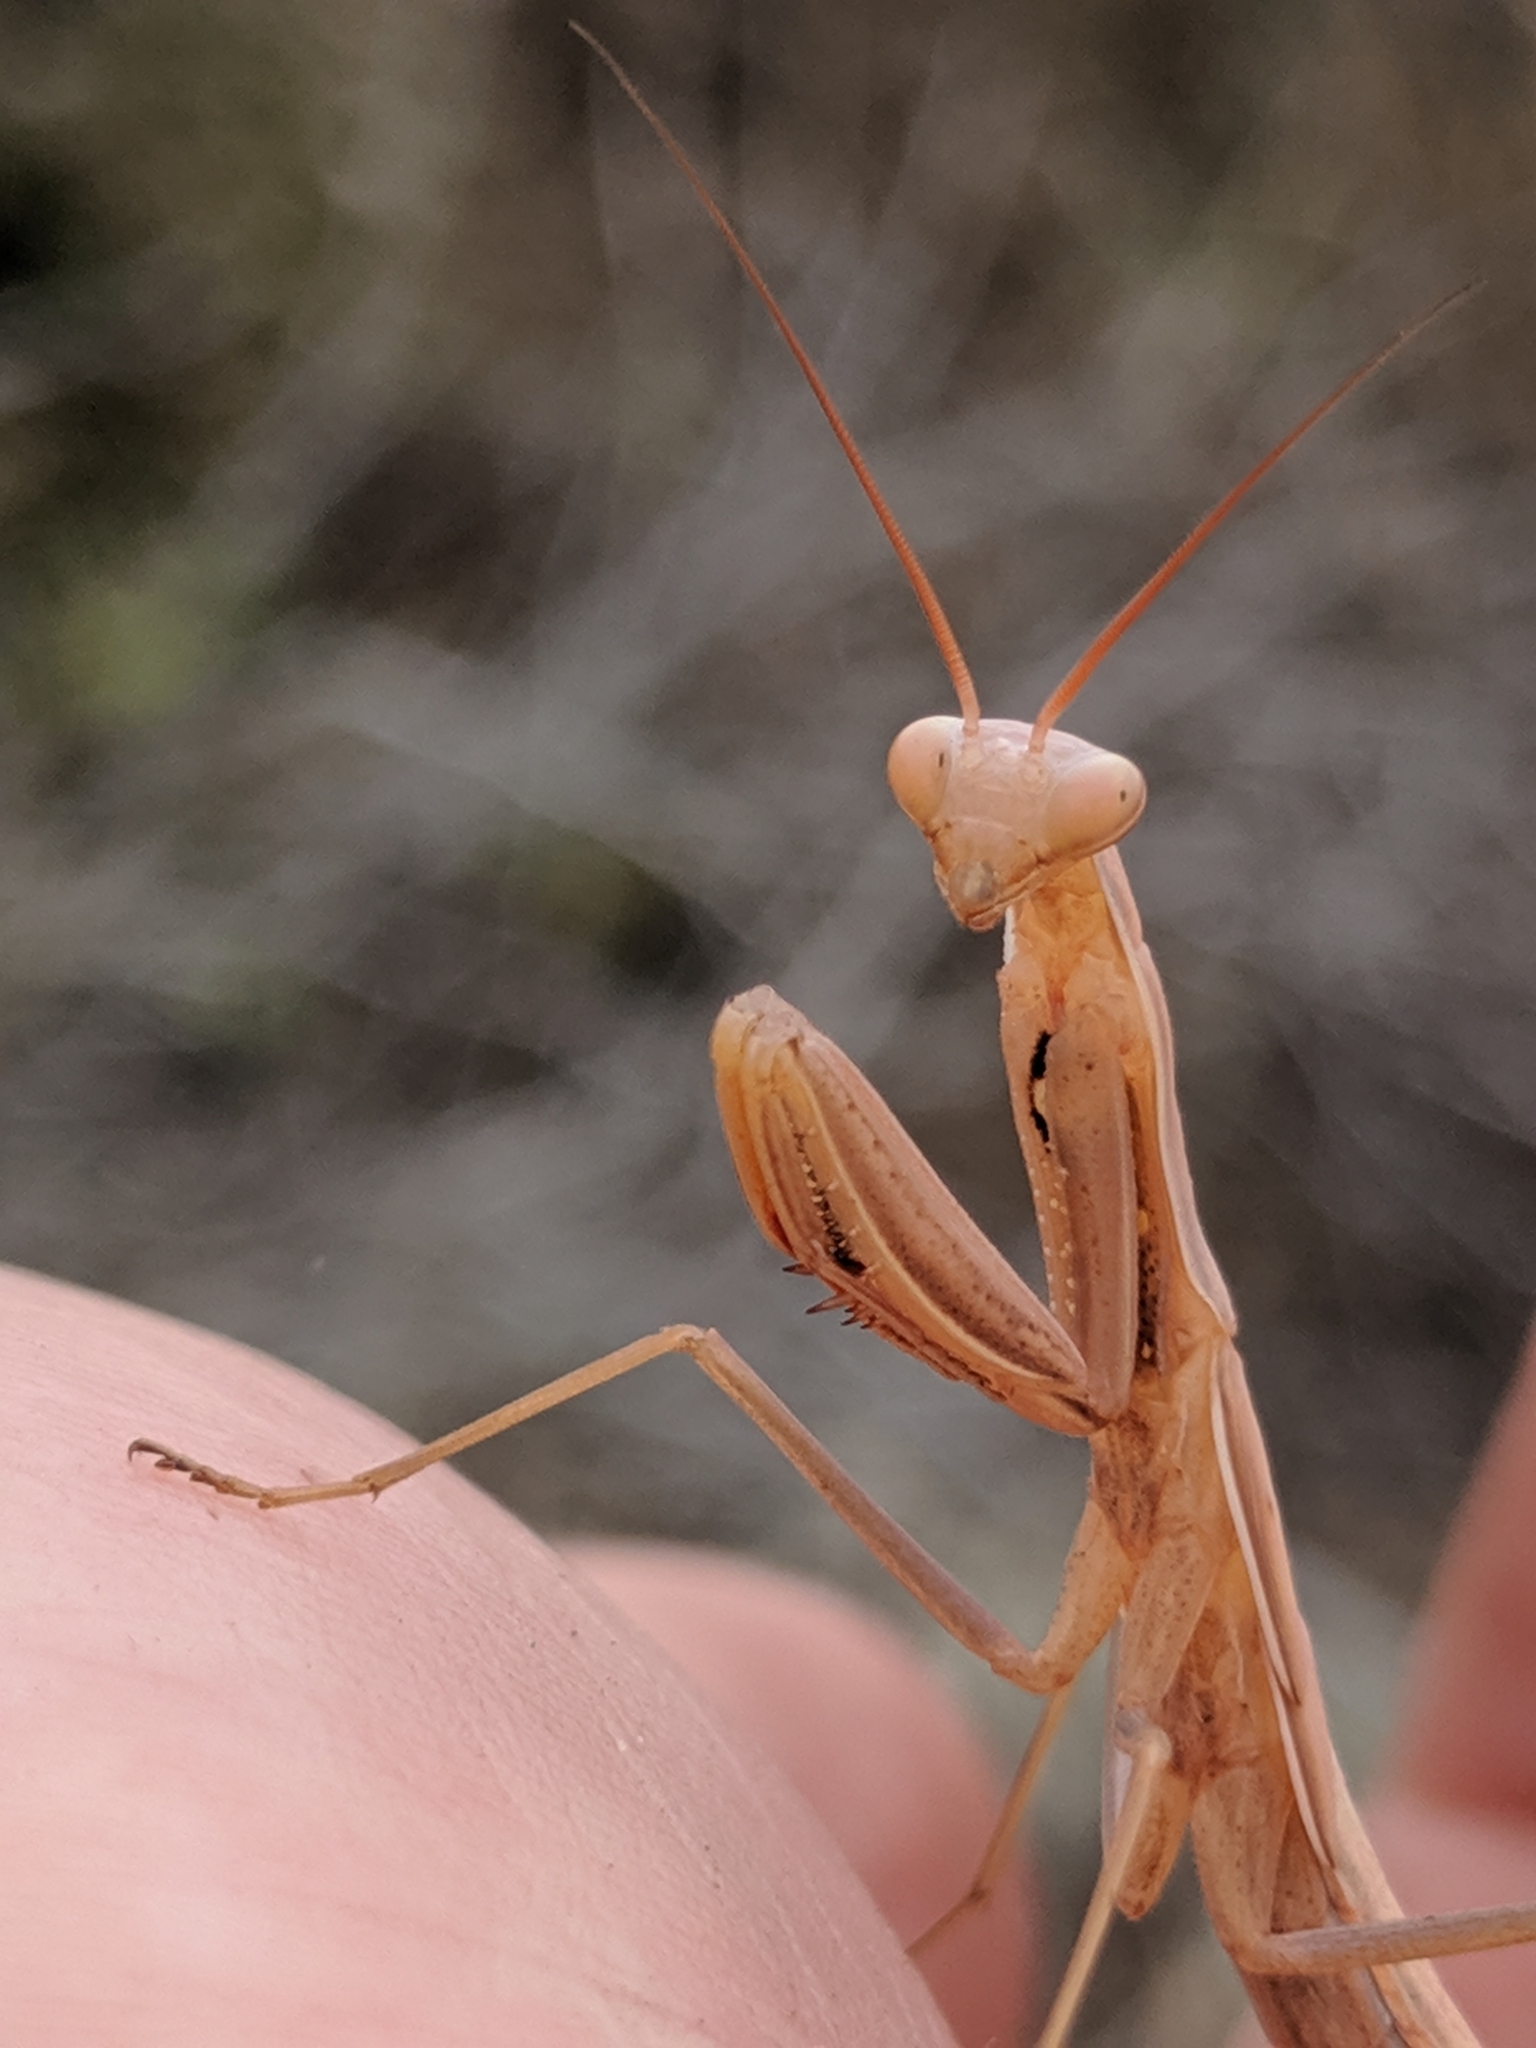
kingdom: Animalia
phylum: Arthropoda
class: Insecta
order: Mantodea
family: Mantidae
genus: Mantis
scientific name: Mantis religiosa
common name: Praying mantis
